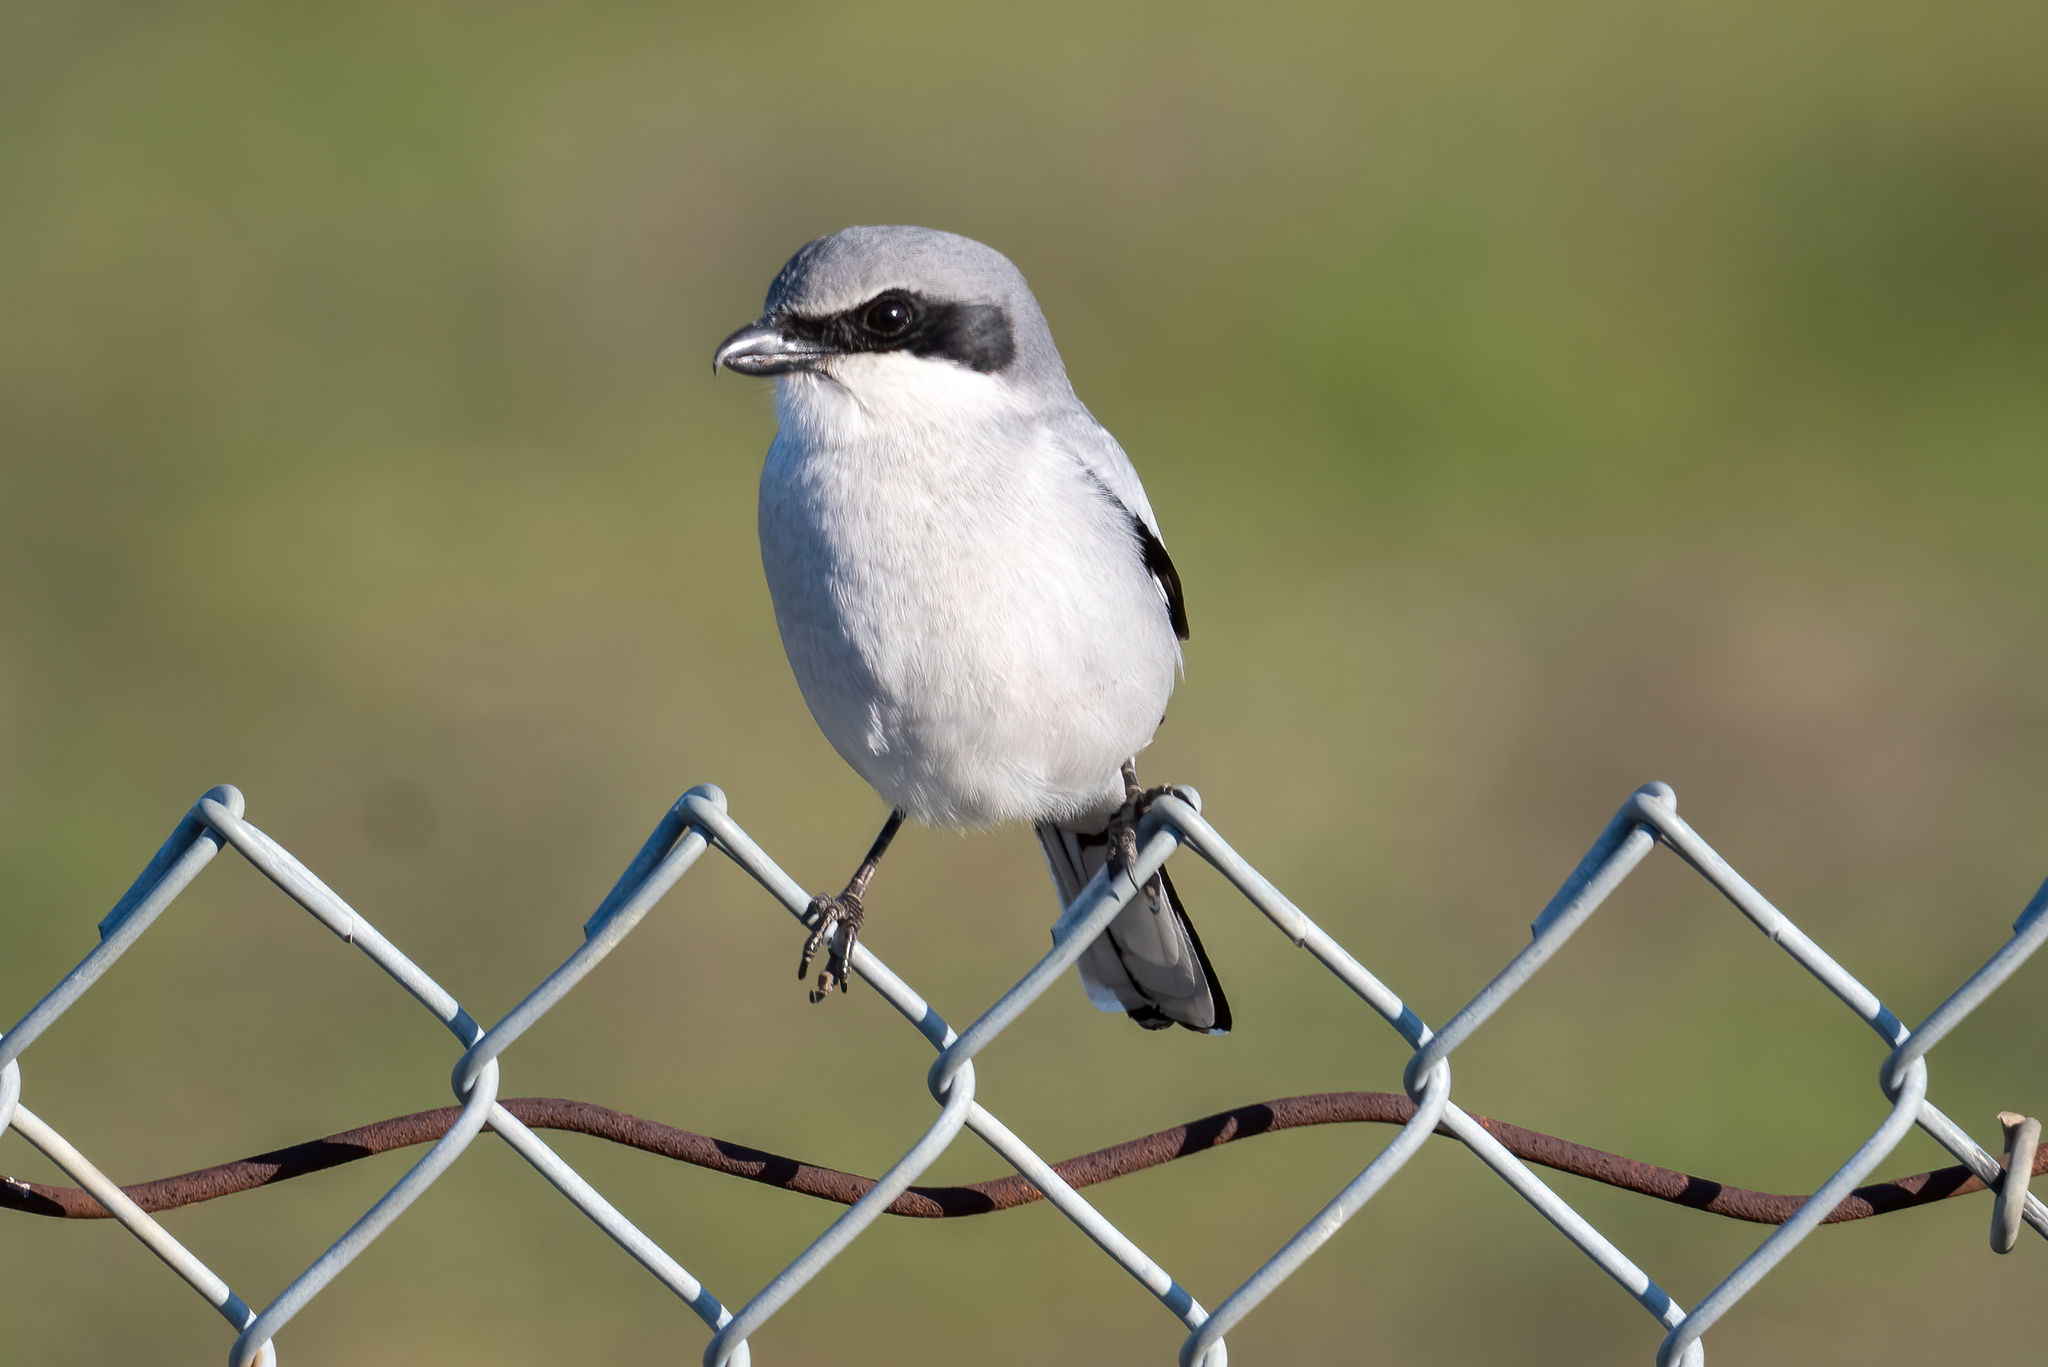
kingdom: Animalia
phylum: Chordata
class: Aves
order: Passeriformes
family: Laniidae
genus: Lanius
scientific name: Lanius ludovicianus
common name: Loggerhead shrike
